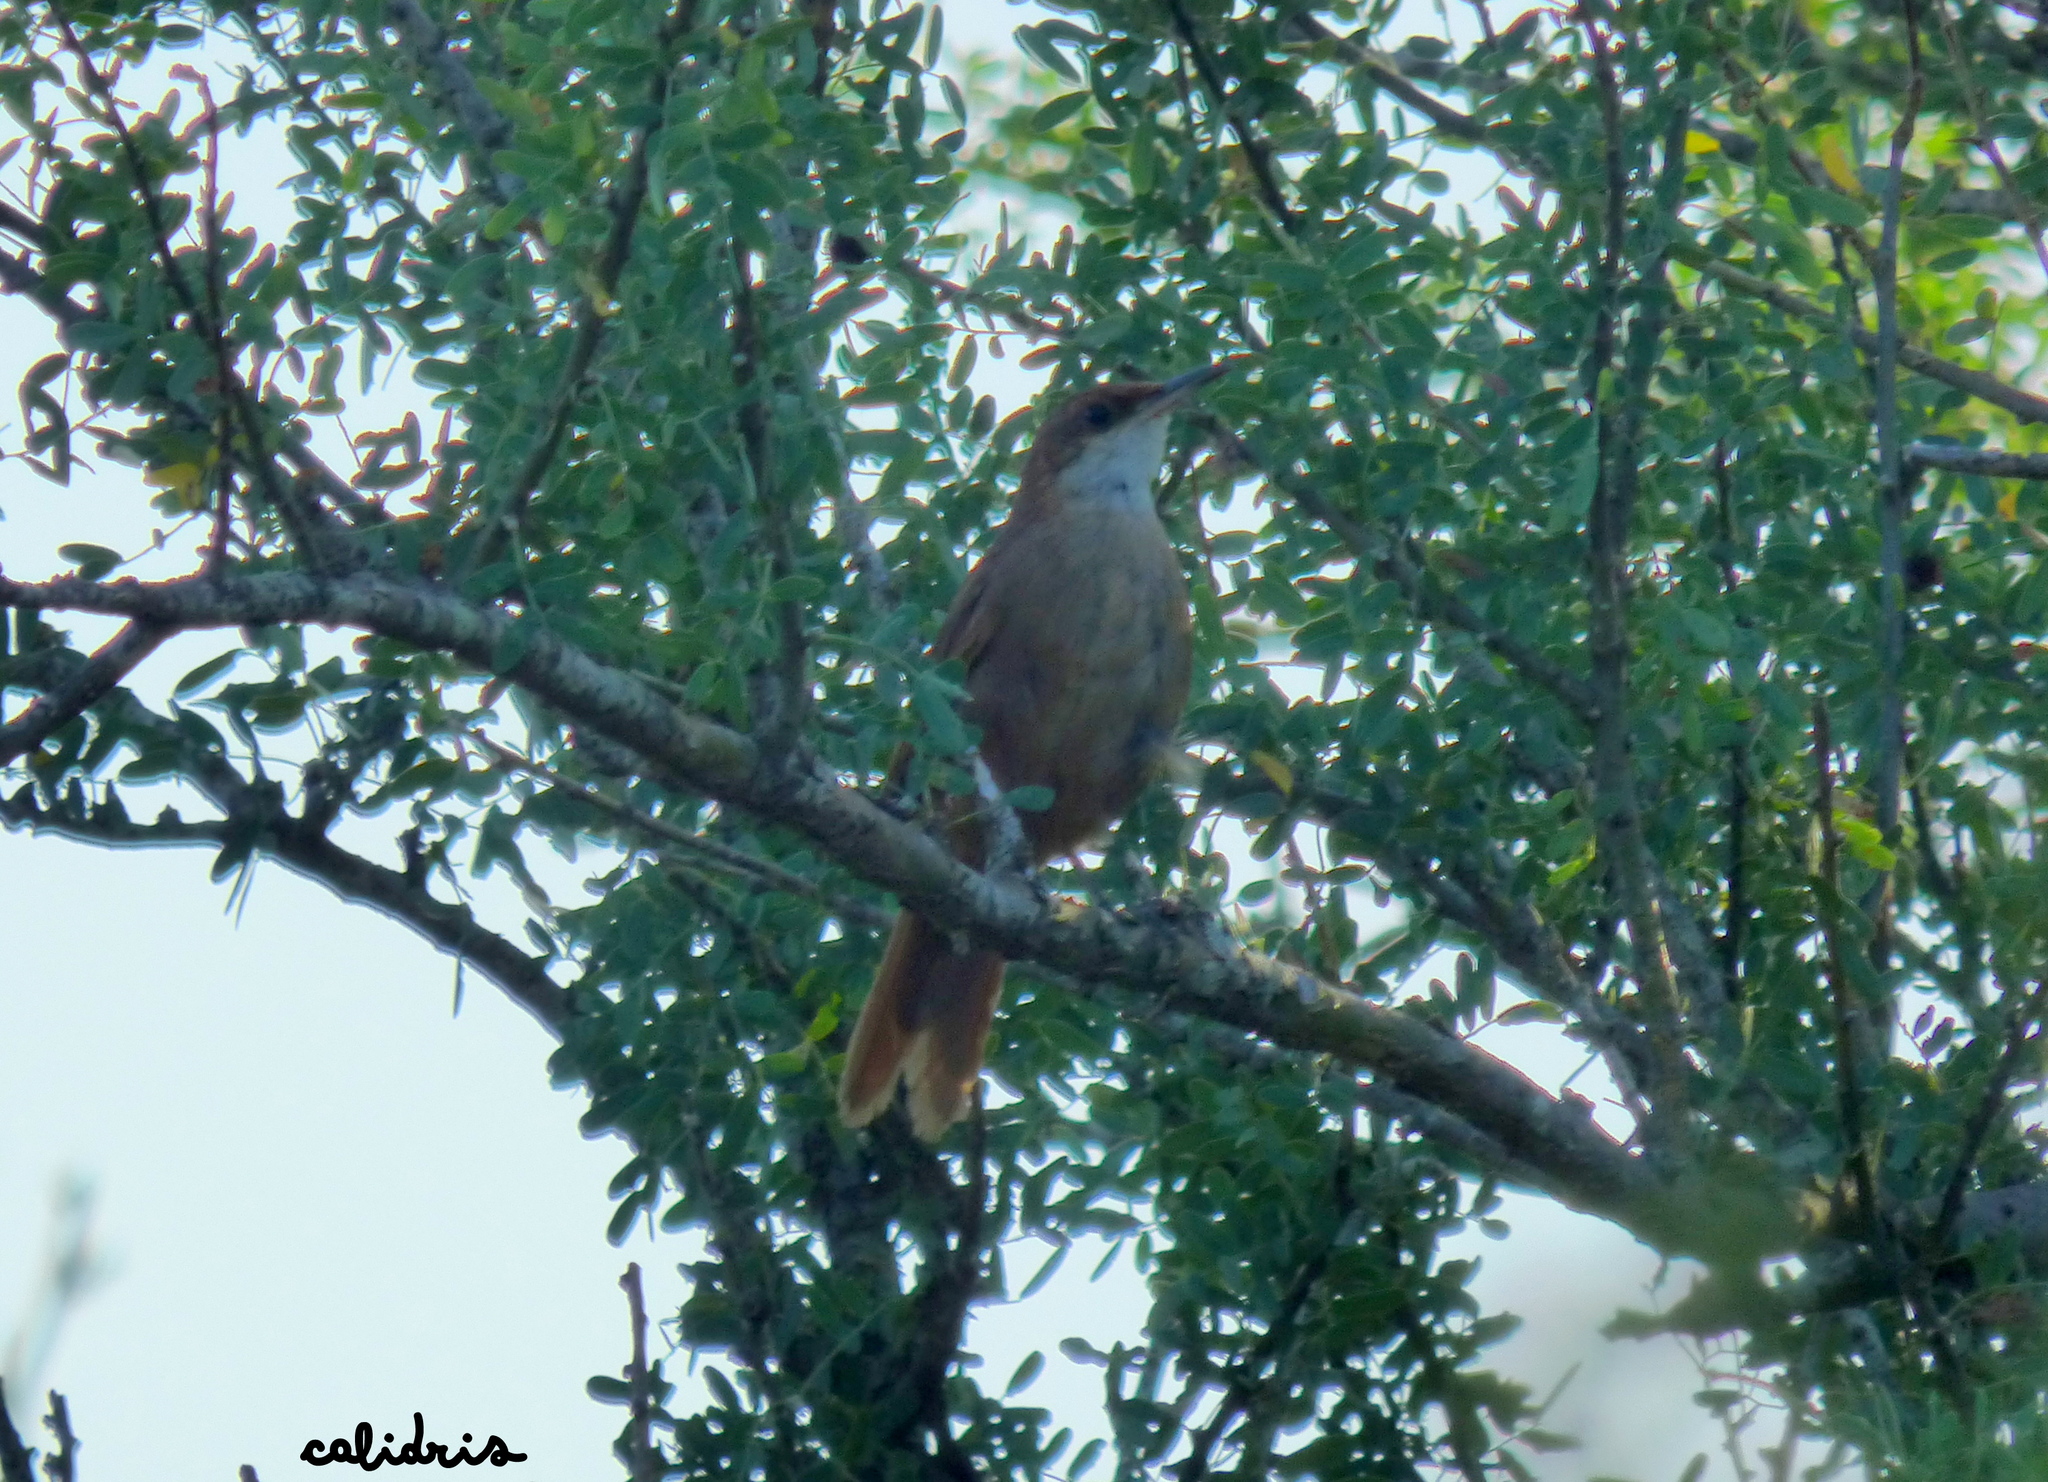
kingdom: Animalia
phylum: Chordata
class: Aves
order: Passeriformes
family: Furnariidae
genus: Upucerthia
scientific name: Upucerthia certhioides
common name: Chaco earthcreeper
